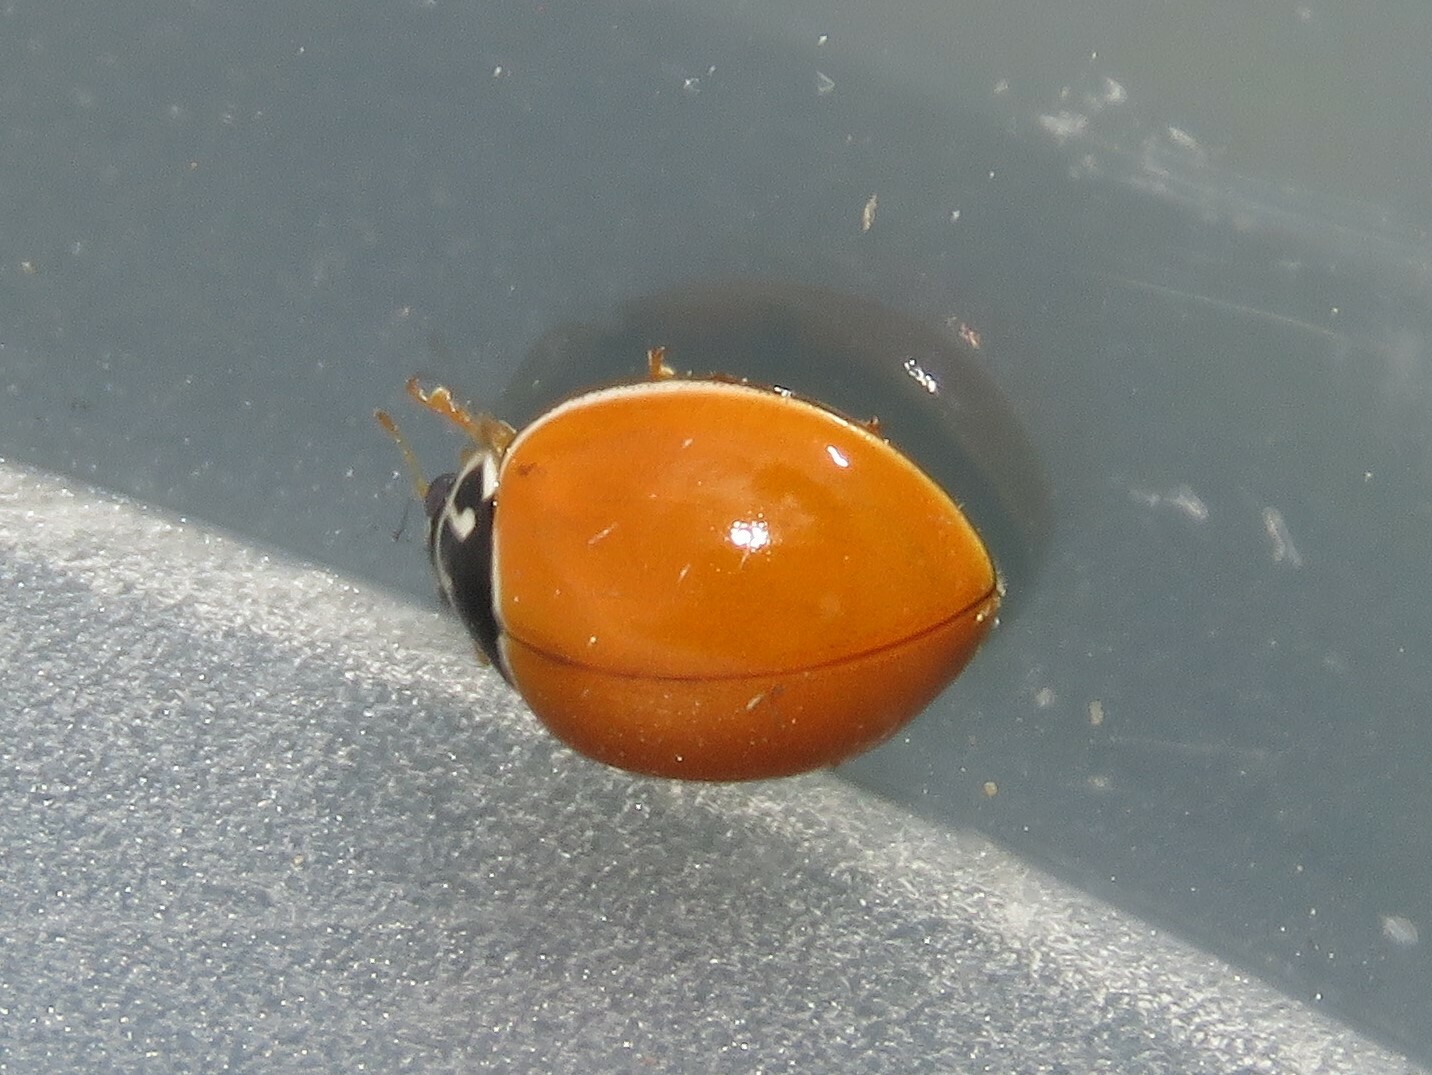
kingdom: Animalia
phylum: Arthropoda
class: Insecta
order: Coleoptera
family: Coccinellidae
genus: Cycloneda
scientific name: Cycloneda munda
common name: Polished lady beetle
